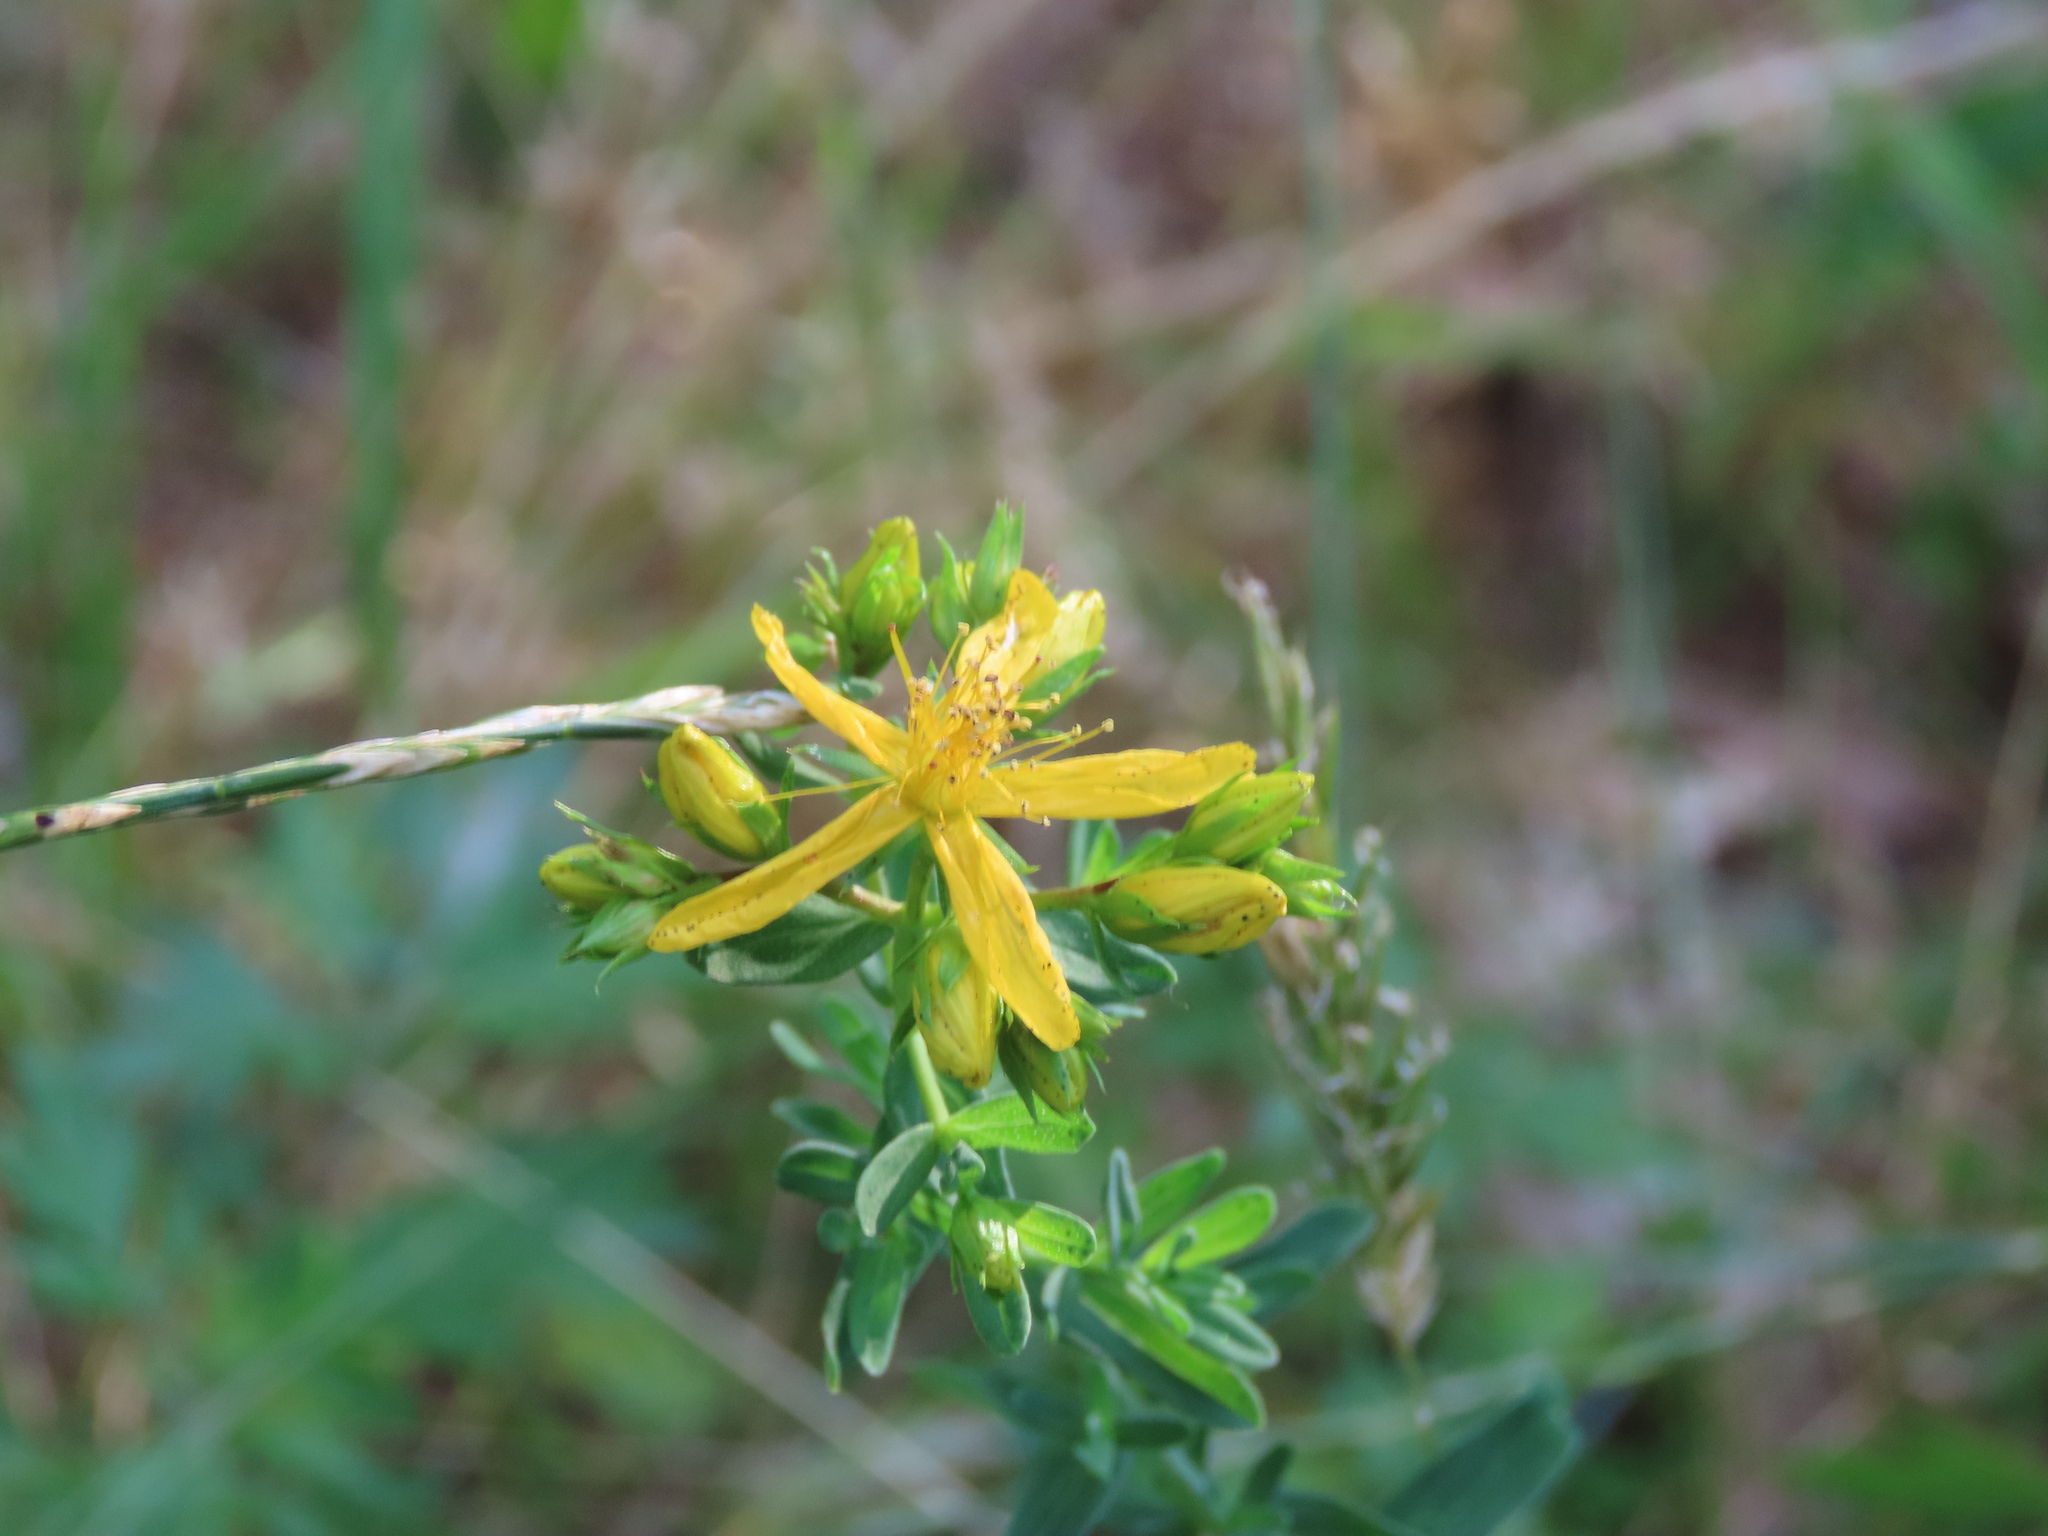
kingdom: Plantae
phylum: Tracheophyta
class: Magnoliopsida
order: Malpighiales
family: Hypericaceae
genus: Hypericum
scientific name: Hypericum perforatum
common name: Common st. johnswort
